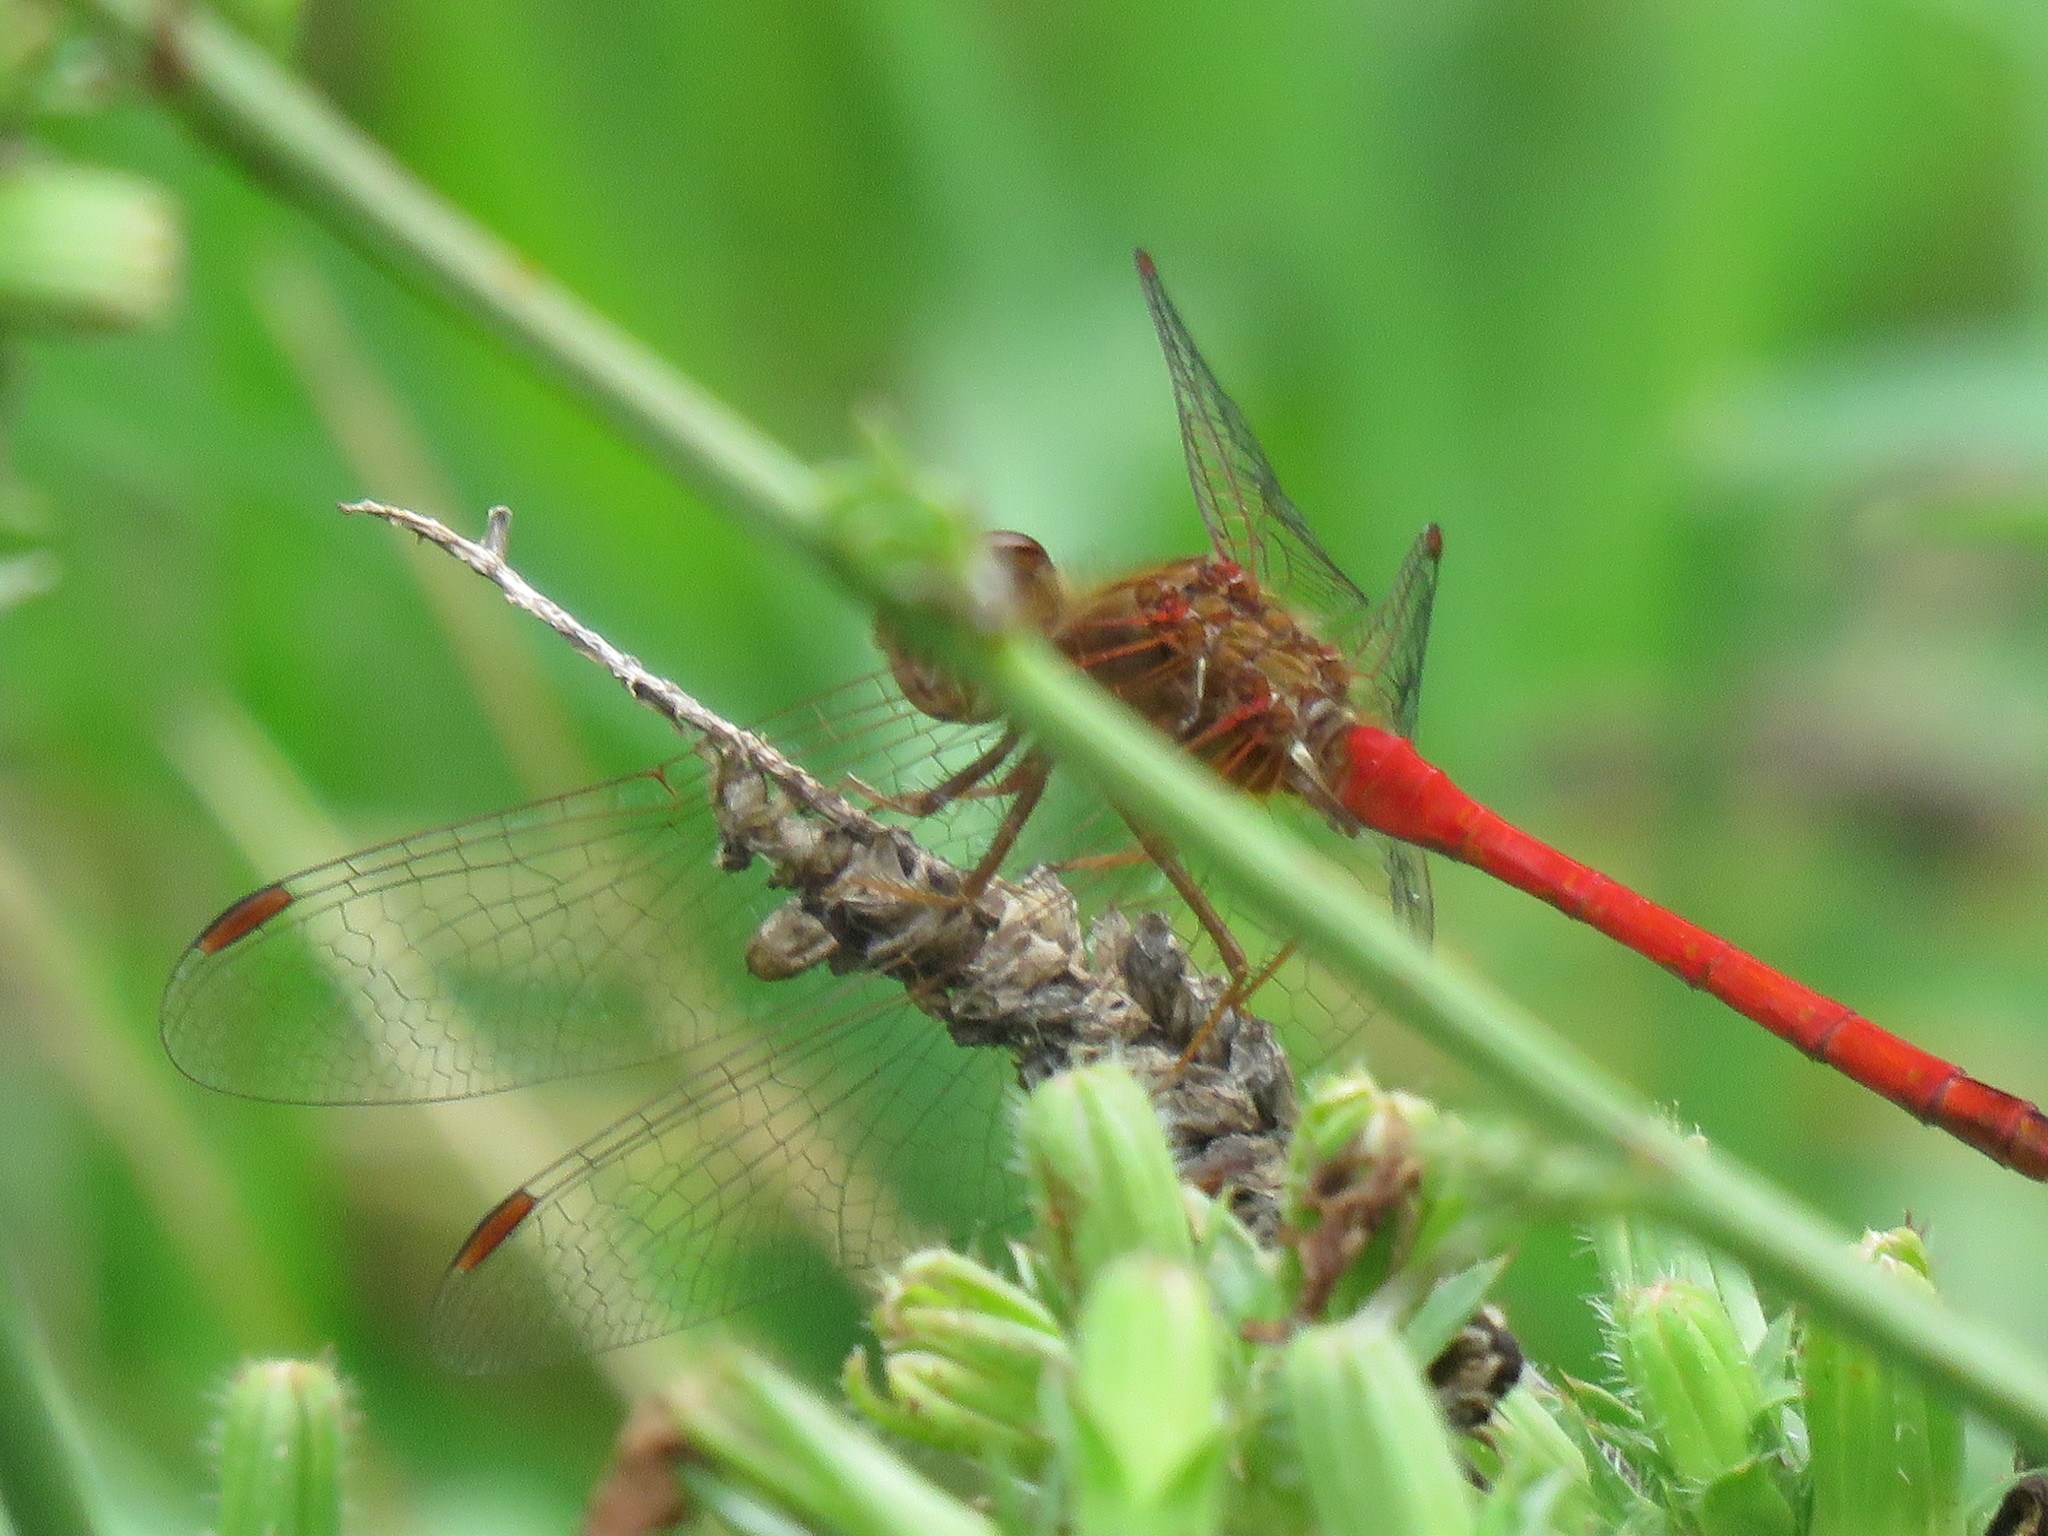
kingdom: Animalia
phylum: Arthropoda
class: Insecta
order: Odonata
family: Libellulidae
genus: Sympetrum
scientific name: Sympetrum vicinum
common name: Autumn meadowhawk
